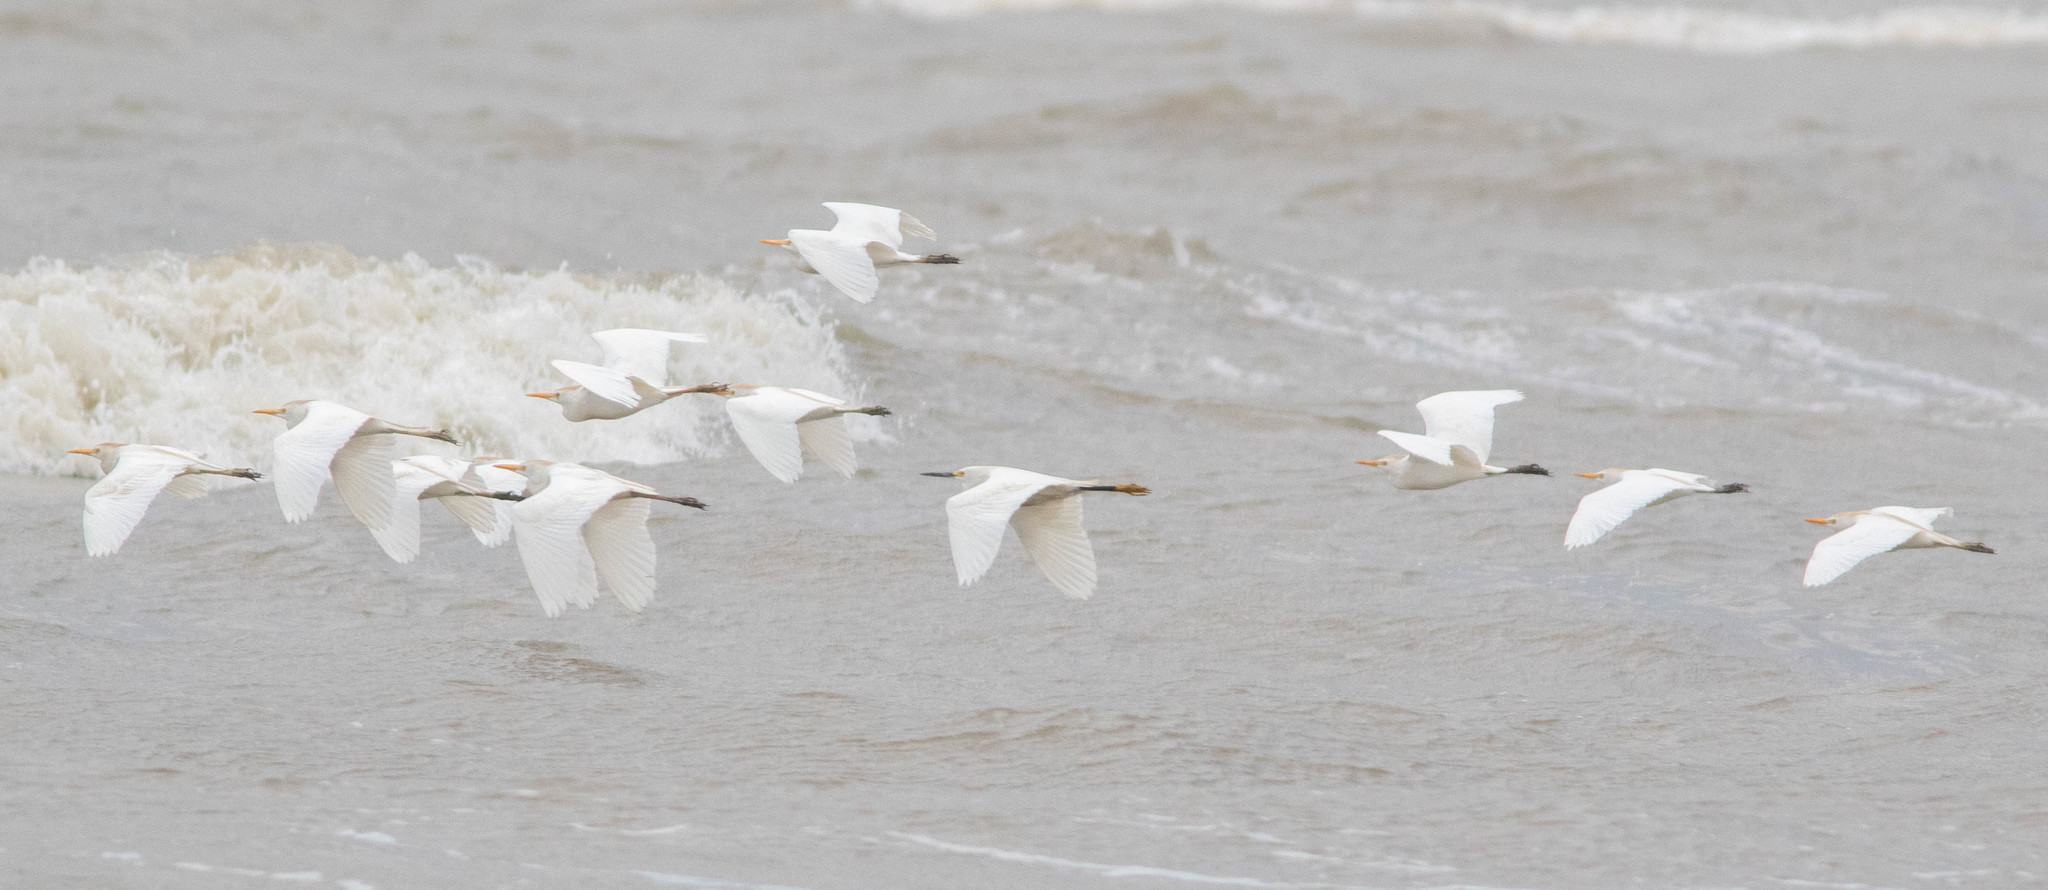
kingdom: Animalia
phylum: Chordata
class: Aves
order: Pelecaniformes
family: Ardeidae
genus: Bubulcus
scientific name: Bubulcus ibis
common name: Cattle egret
